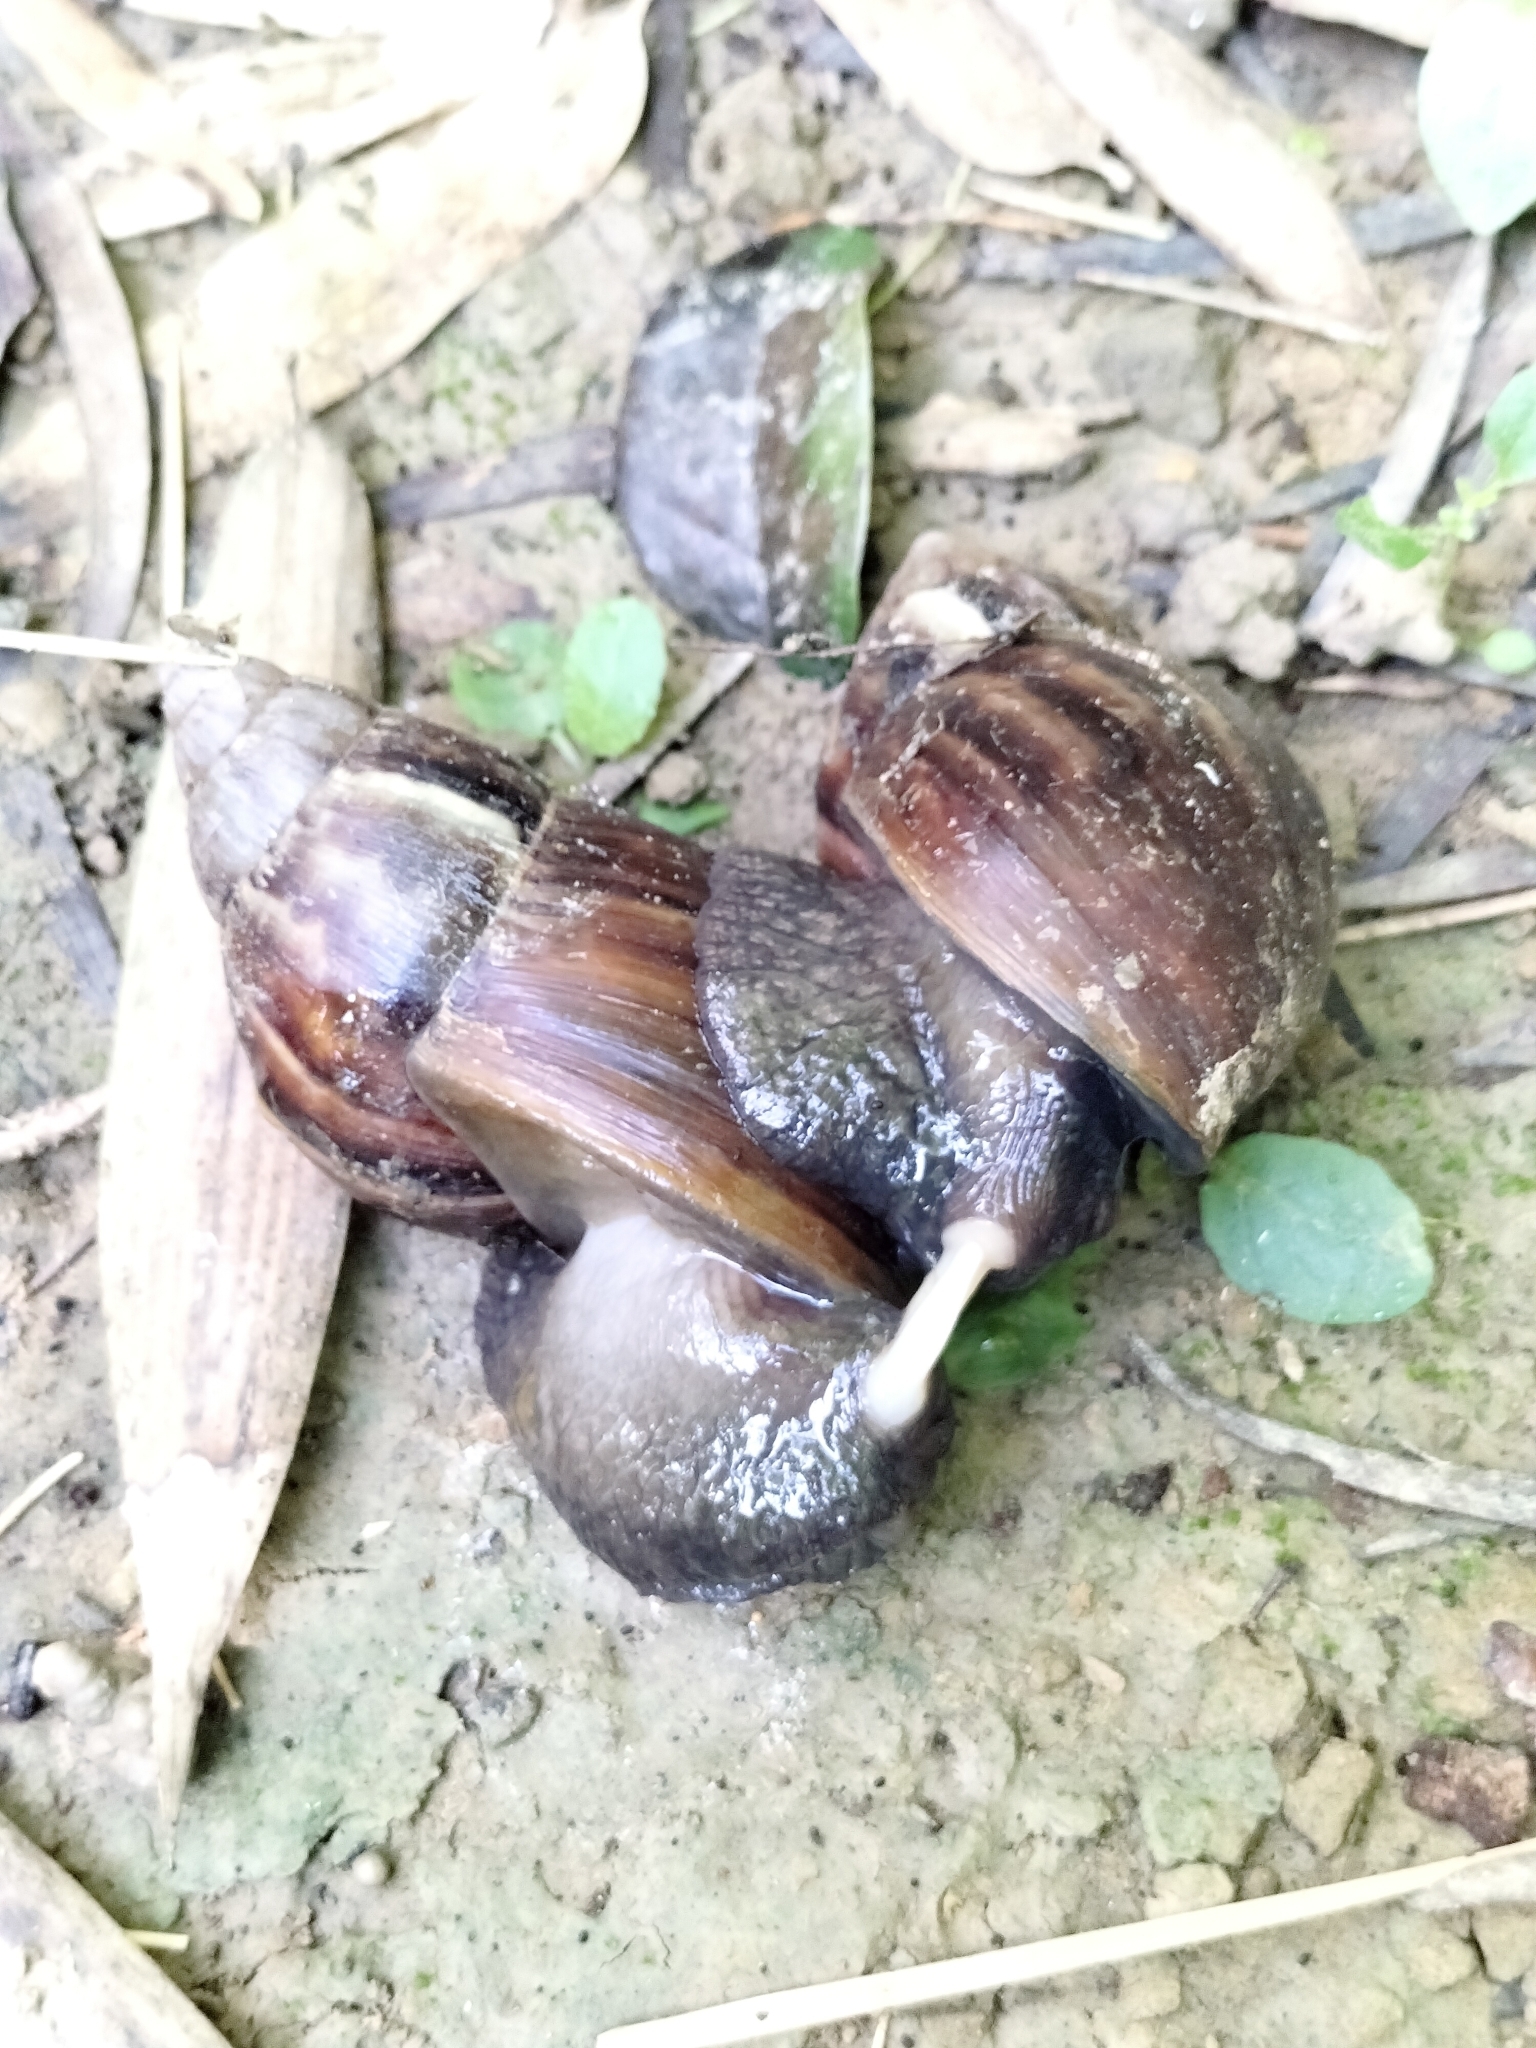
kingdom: Animalia
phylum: Mollusca
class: Gastropoda
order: Stylommatophora
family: Achatinidae
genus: Lissachatina
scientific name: Lissachatina fulica
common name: Giant african snail
